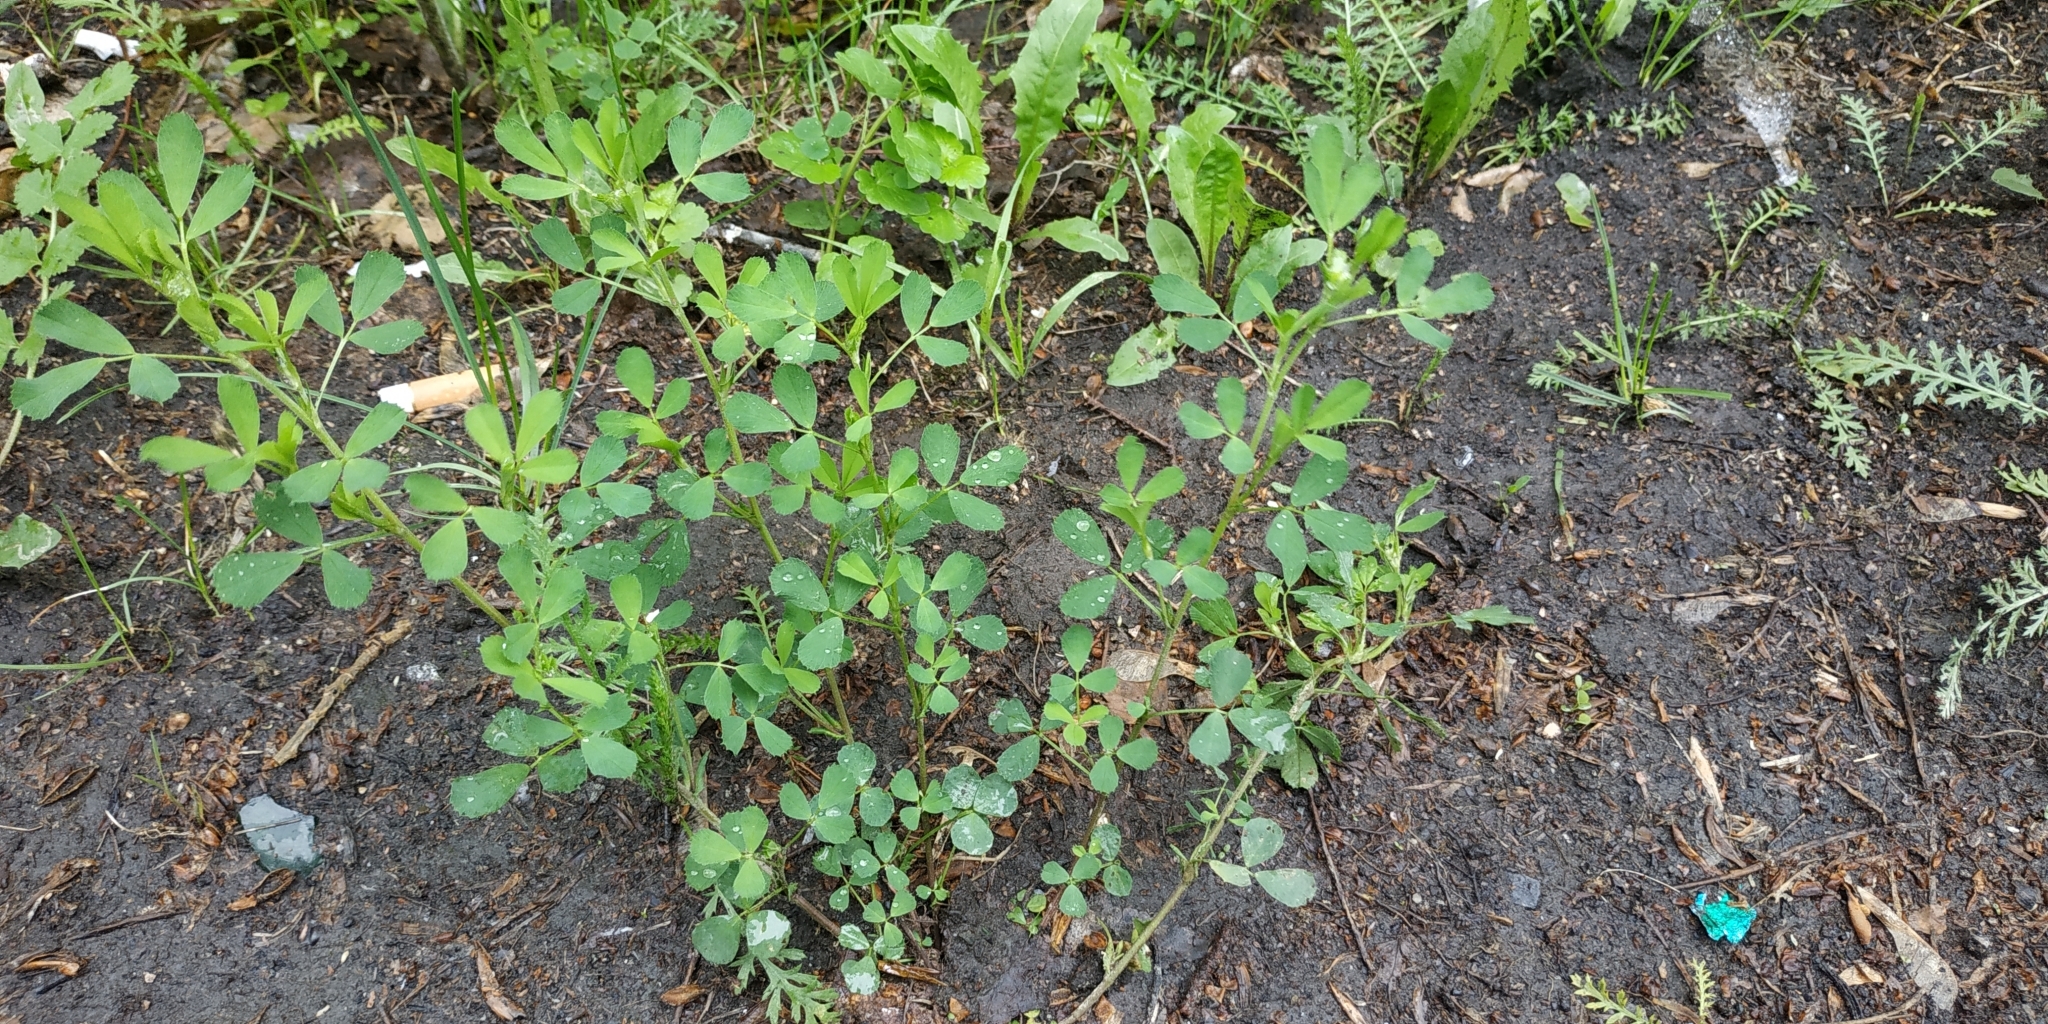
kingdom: Plantae
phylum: Tracheophyta
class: Magnoliopsida
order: Fabales
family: Fabaceae
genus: Medicago
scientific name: Medicago varia
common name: Sand lucerne
